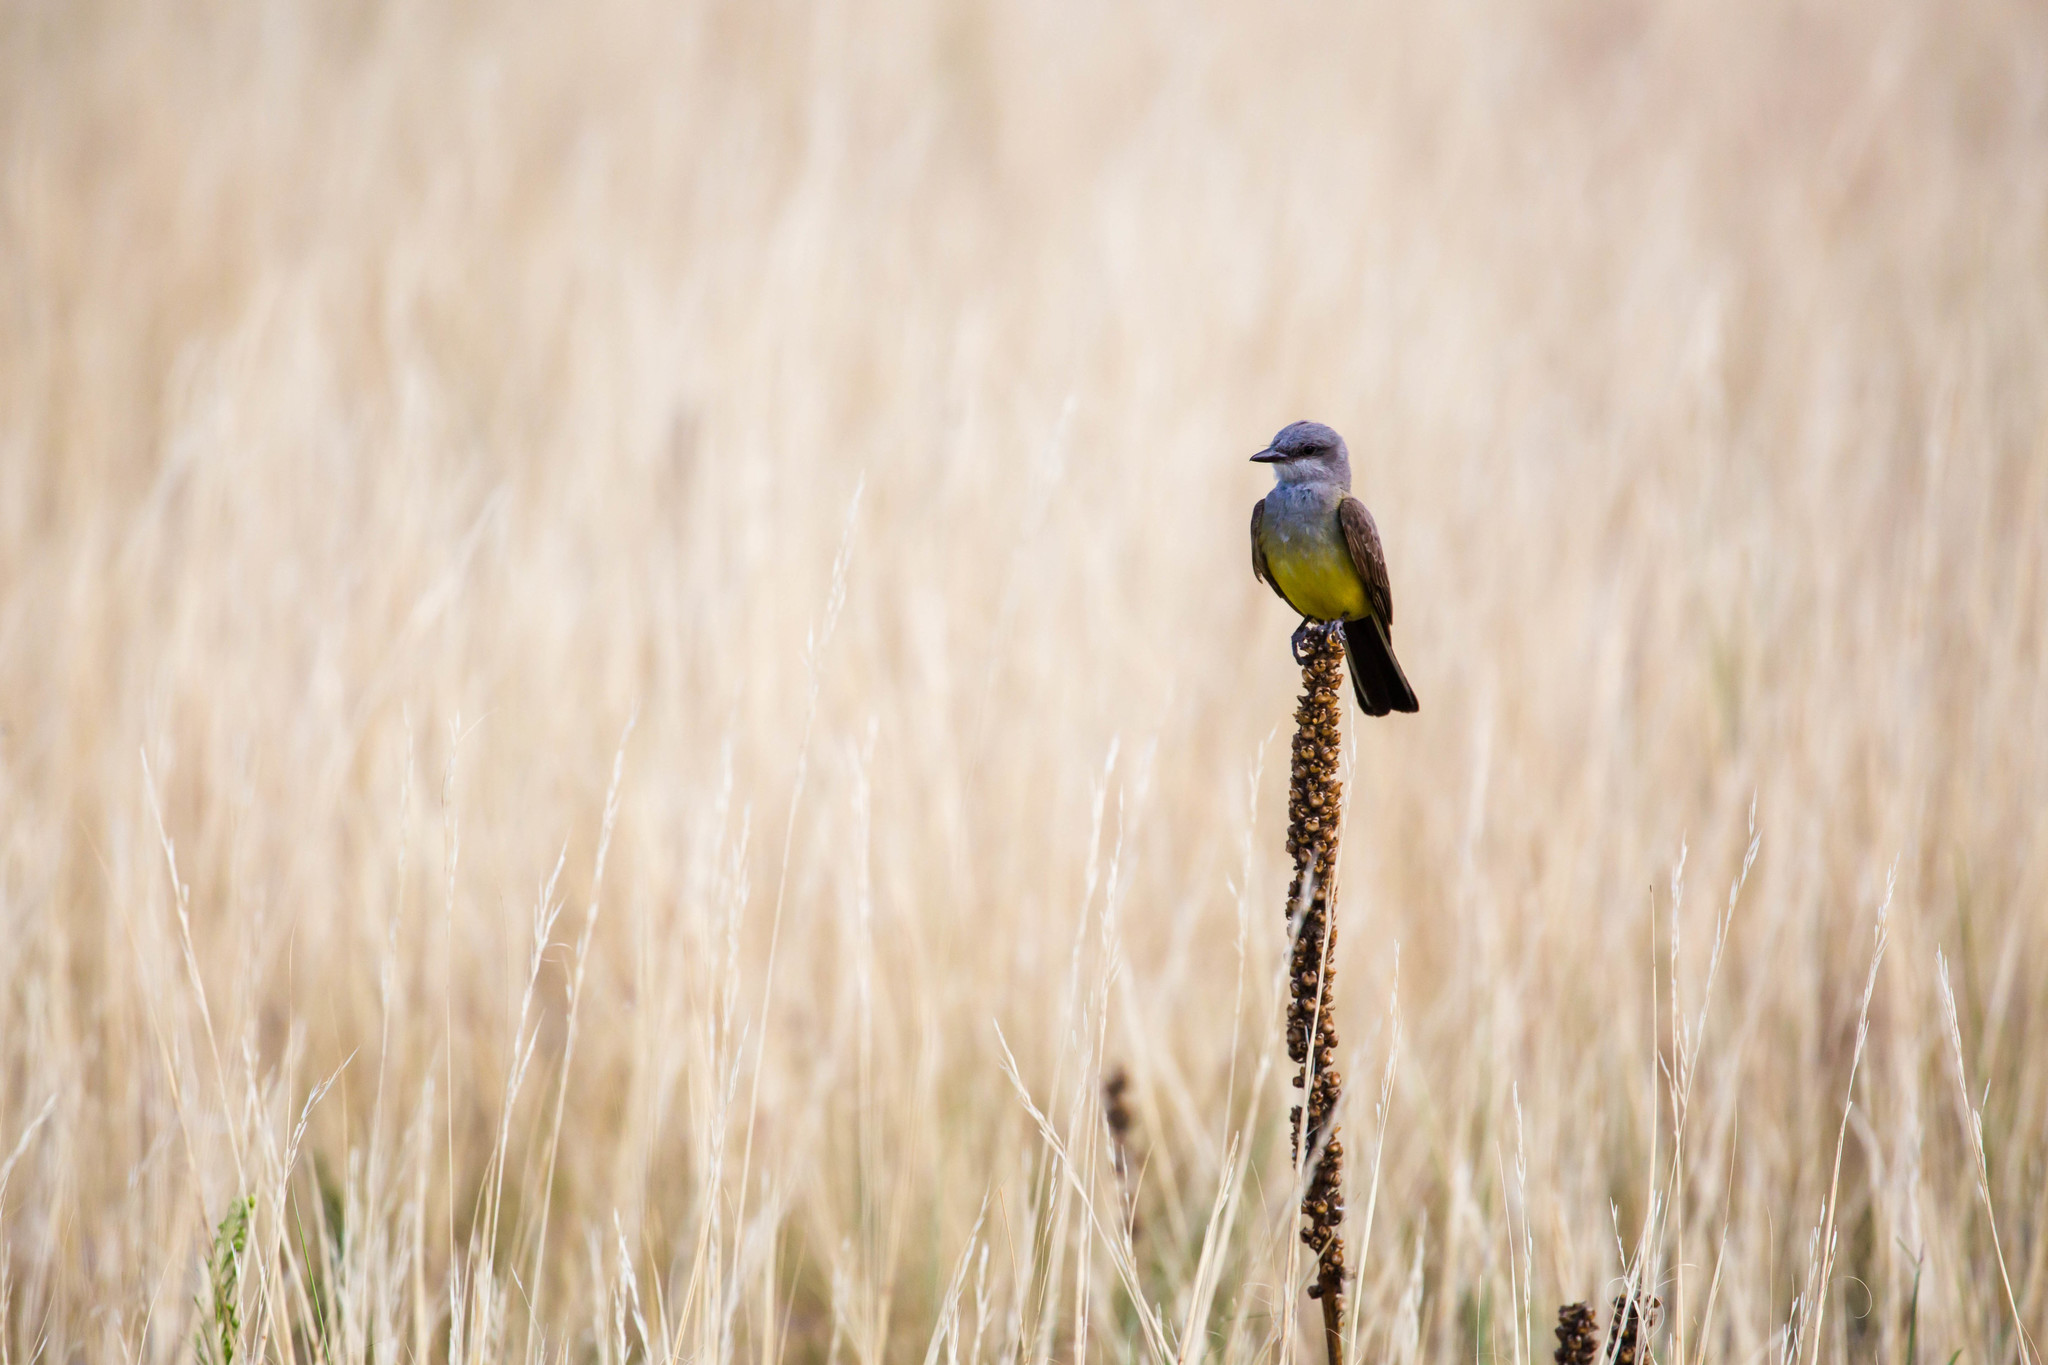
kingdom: Animalia
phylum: Chordata
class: Aves
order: Passeriformes
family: Tyrannidae
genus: Tyrannus
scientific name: Tyrannus verticalis
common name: Western kingbird
